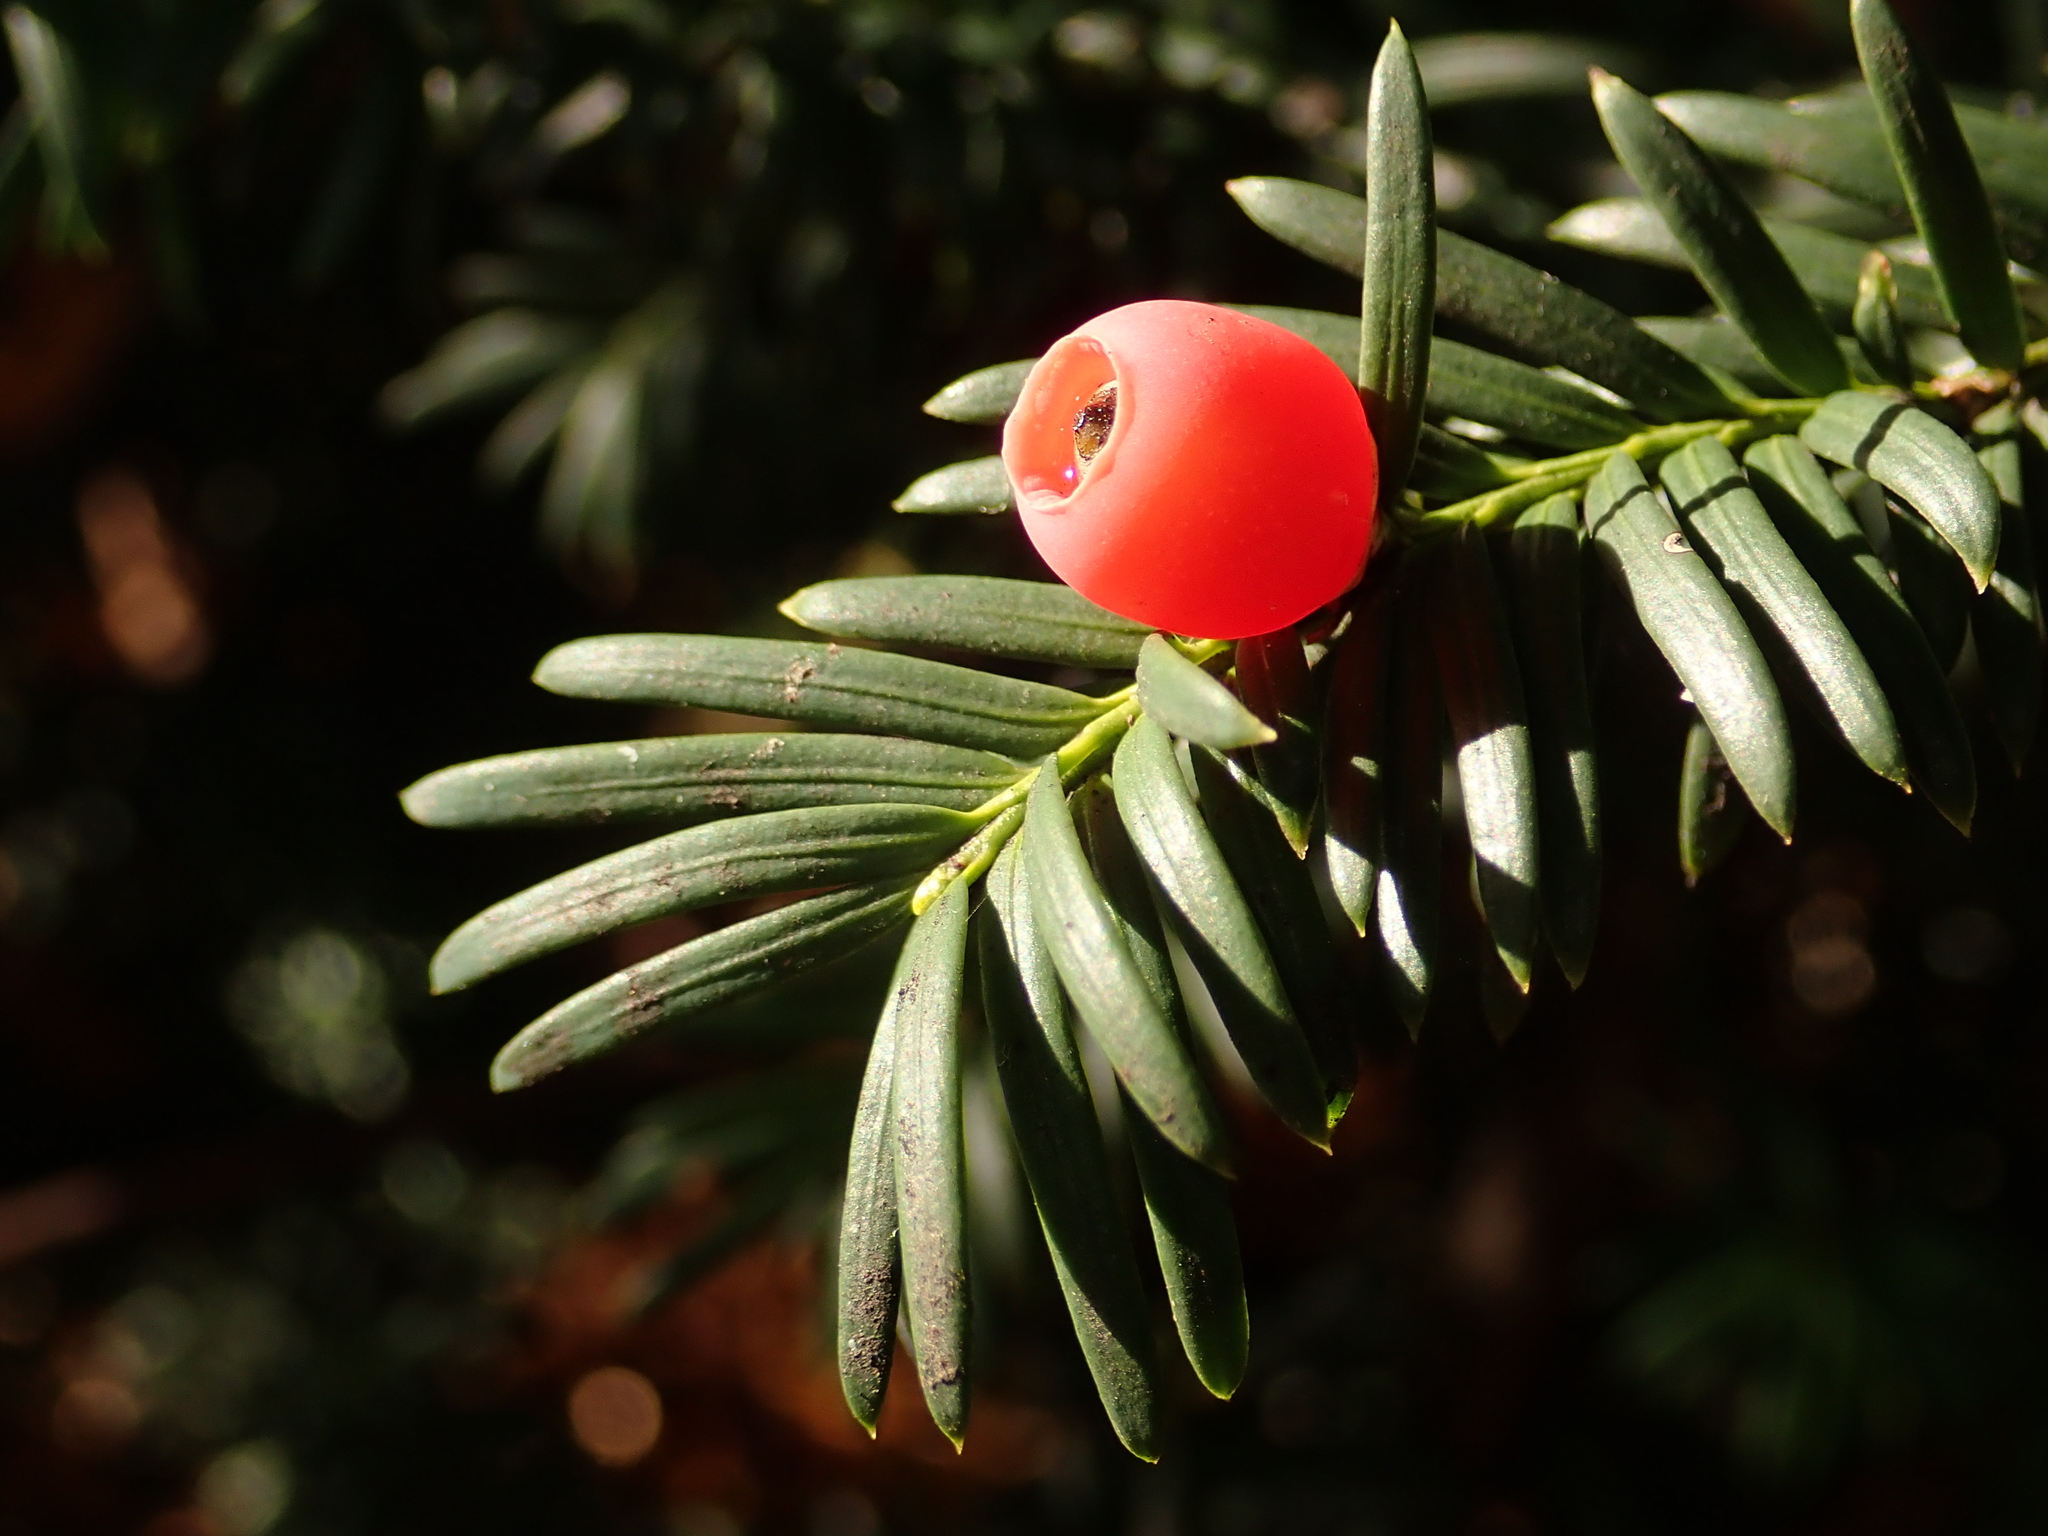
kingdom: Plantae
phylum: Tracheophyta
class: Pinopsida
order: Pinales
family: Taxaceae
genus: Taxus
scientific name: Taxus baccata
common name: Yew
